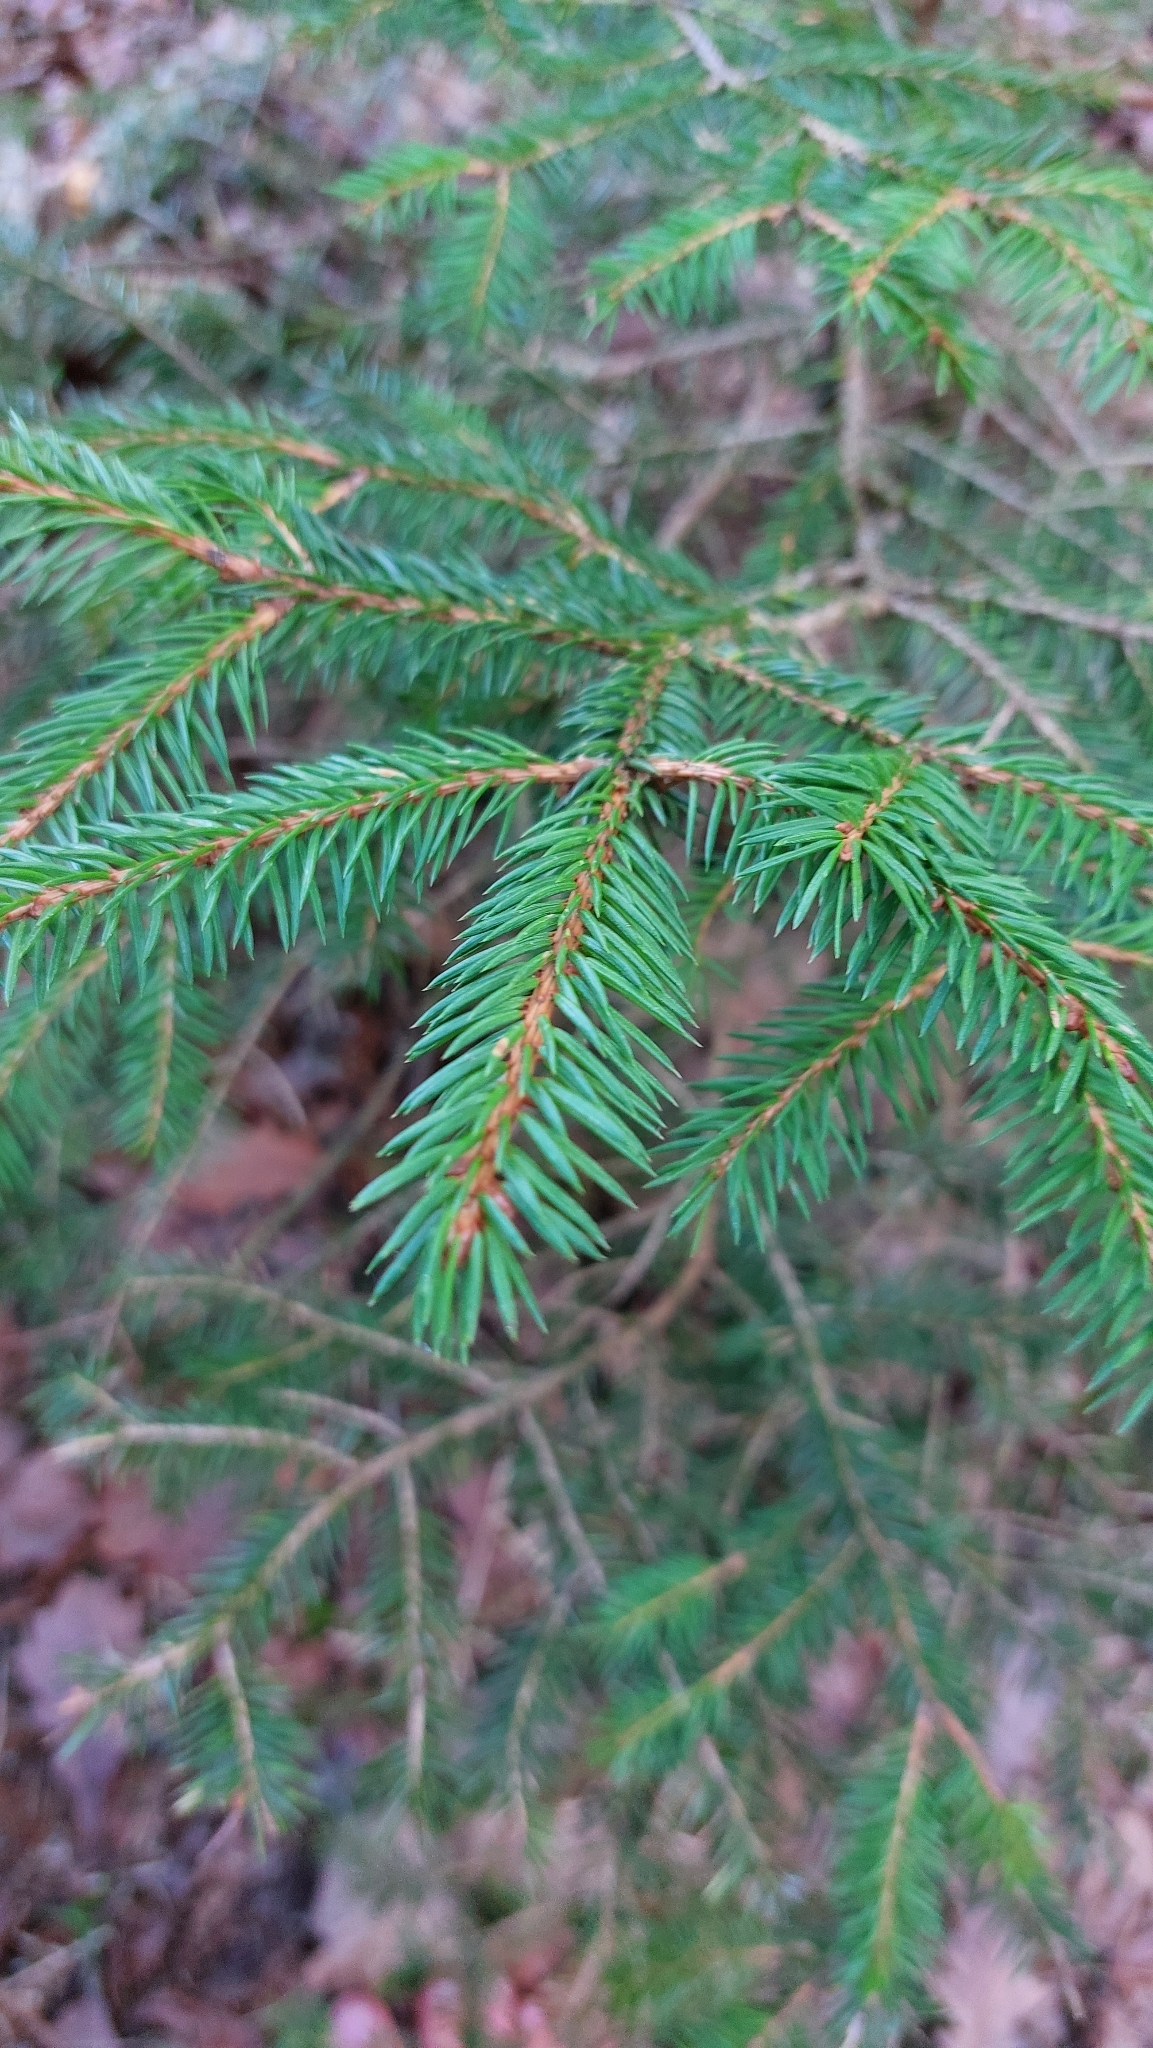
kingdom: Plantae
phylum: Tracheophyta
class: Pinopsida
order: Pinales
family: Pinaceae
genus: Picea
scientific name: Picea abies
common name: Norway spruce
